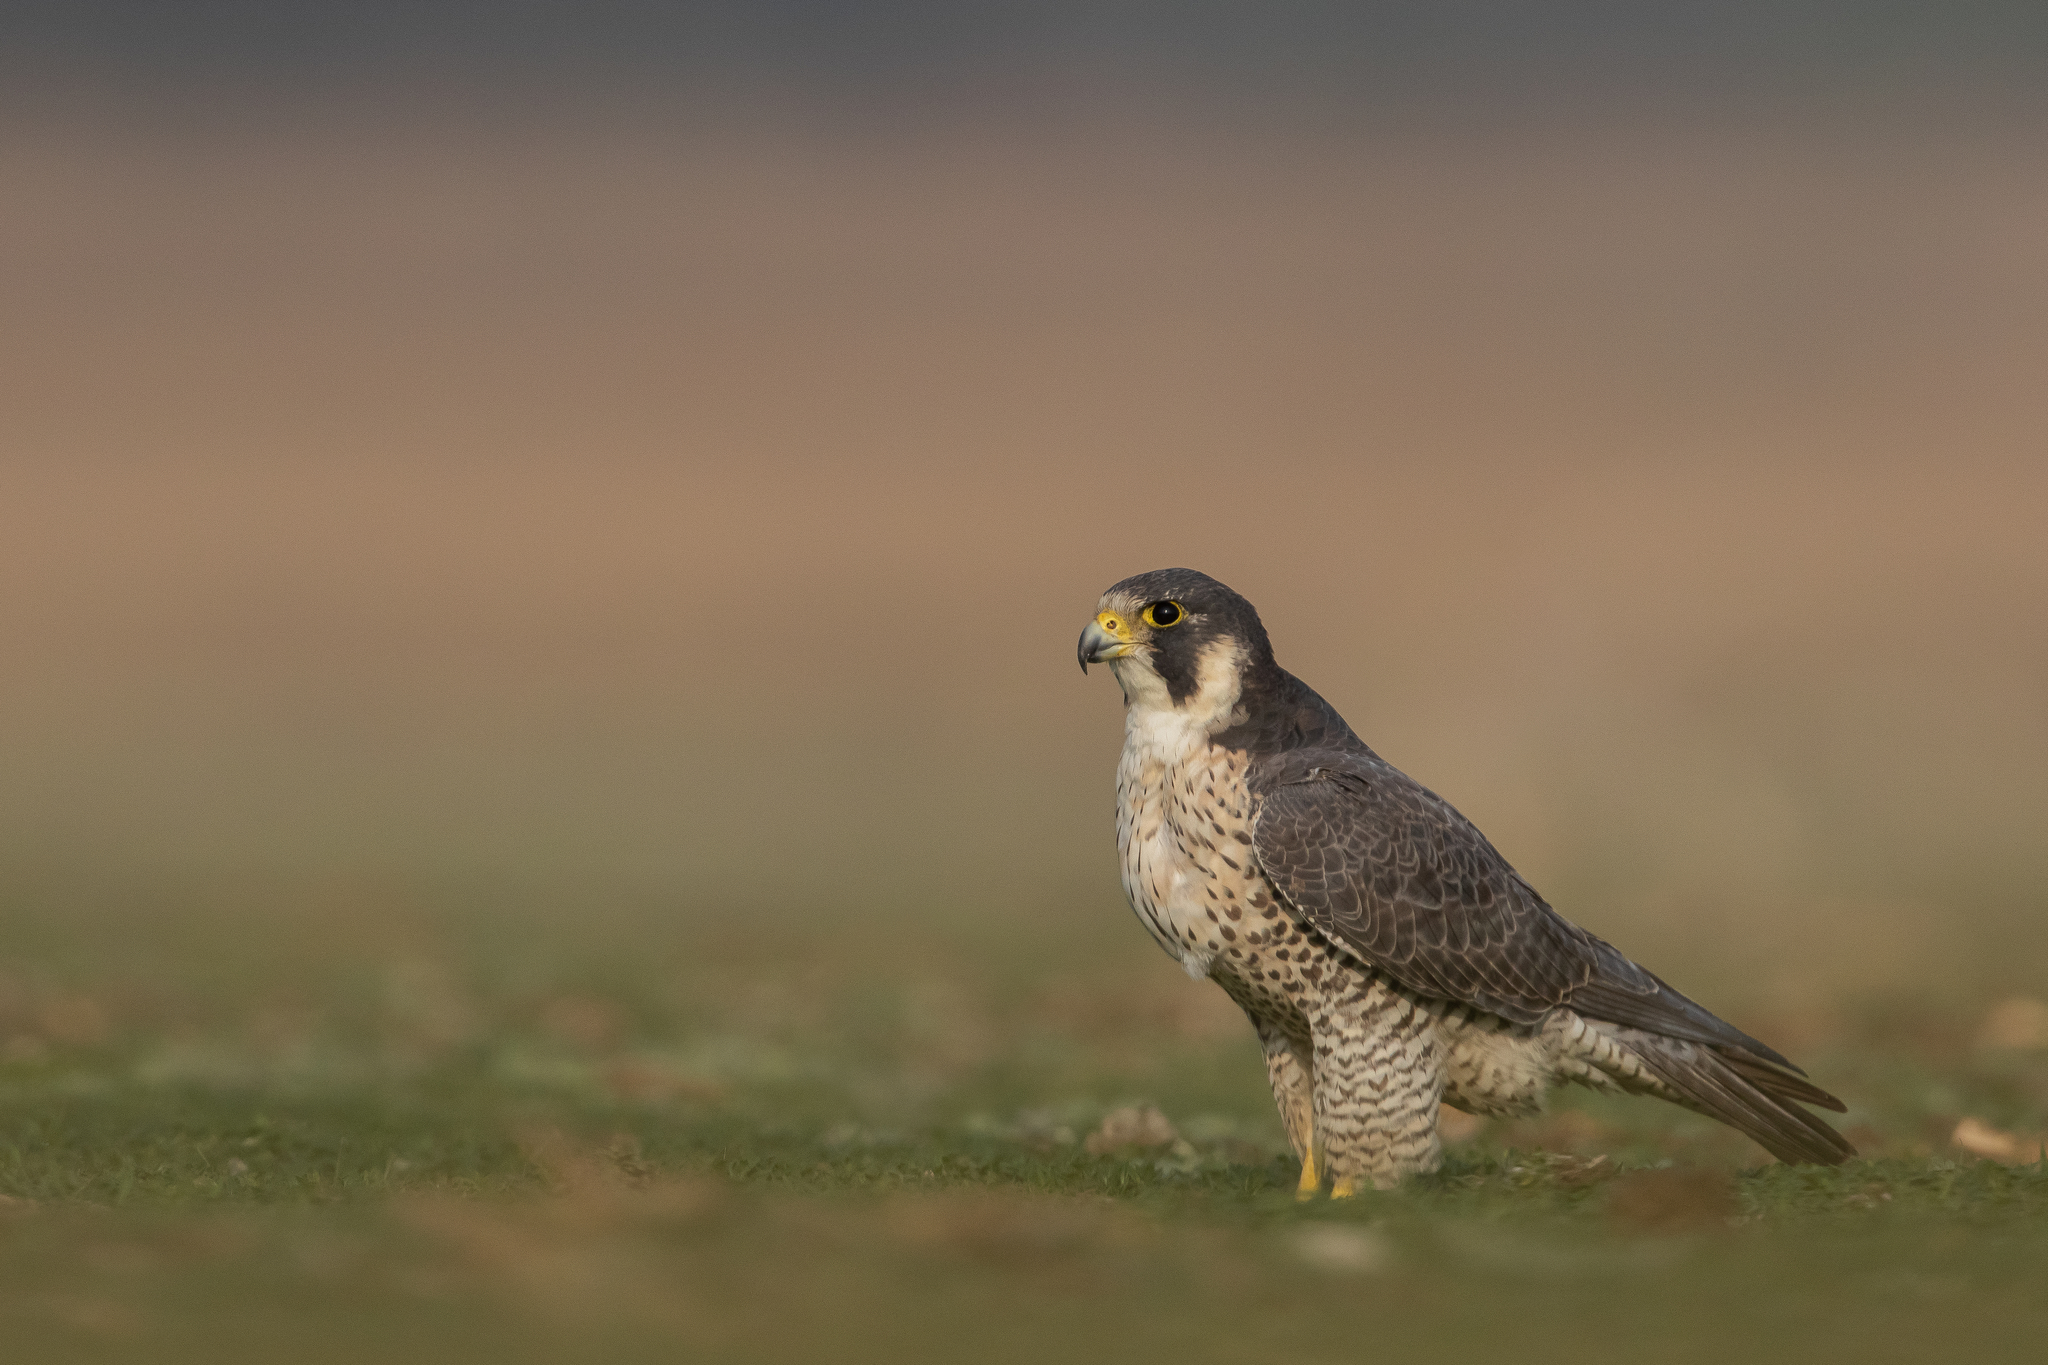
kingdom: Animalia
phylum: Chordata
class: Aves
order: Falconiformes
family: Falconidae
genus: Falco
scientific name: Falco peregrinus
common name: Peregrine falcon
